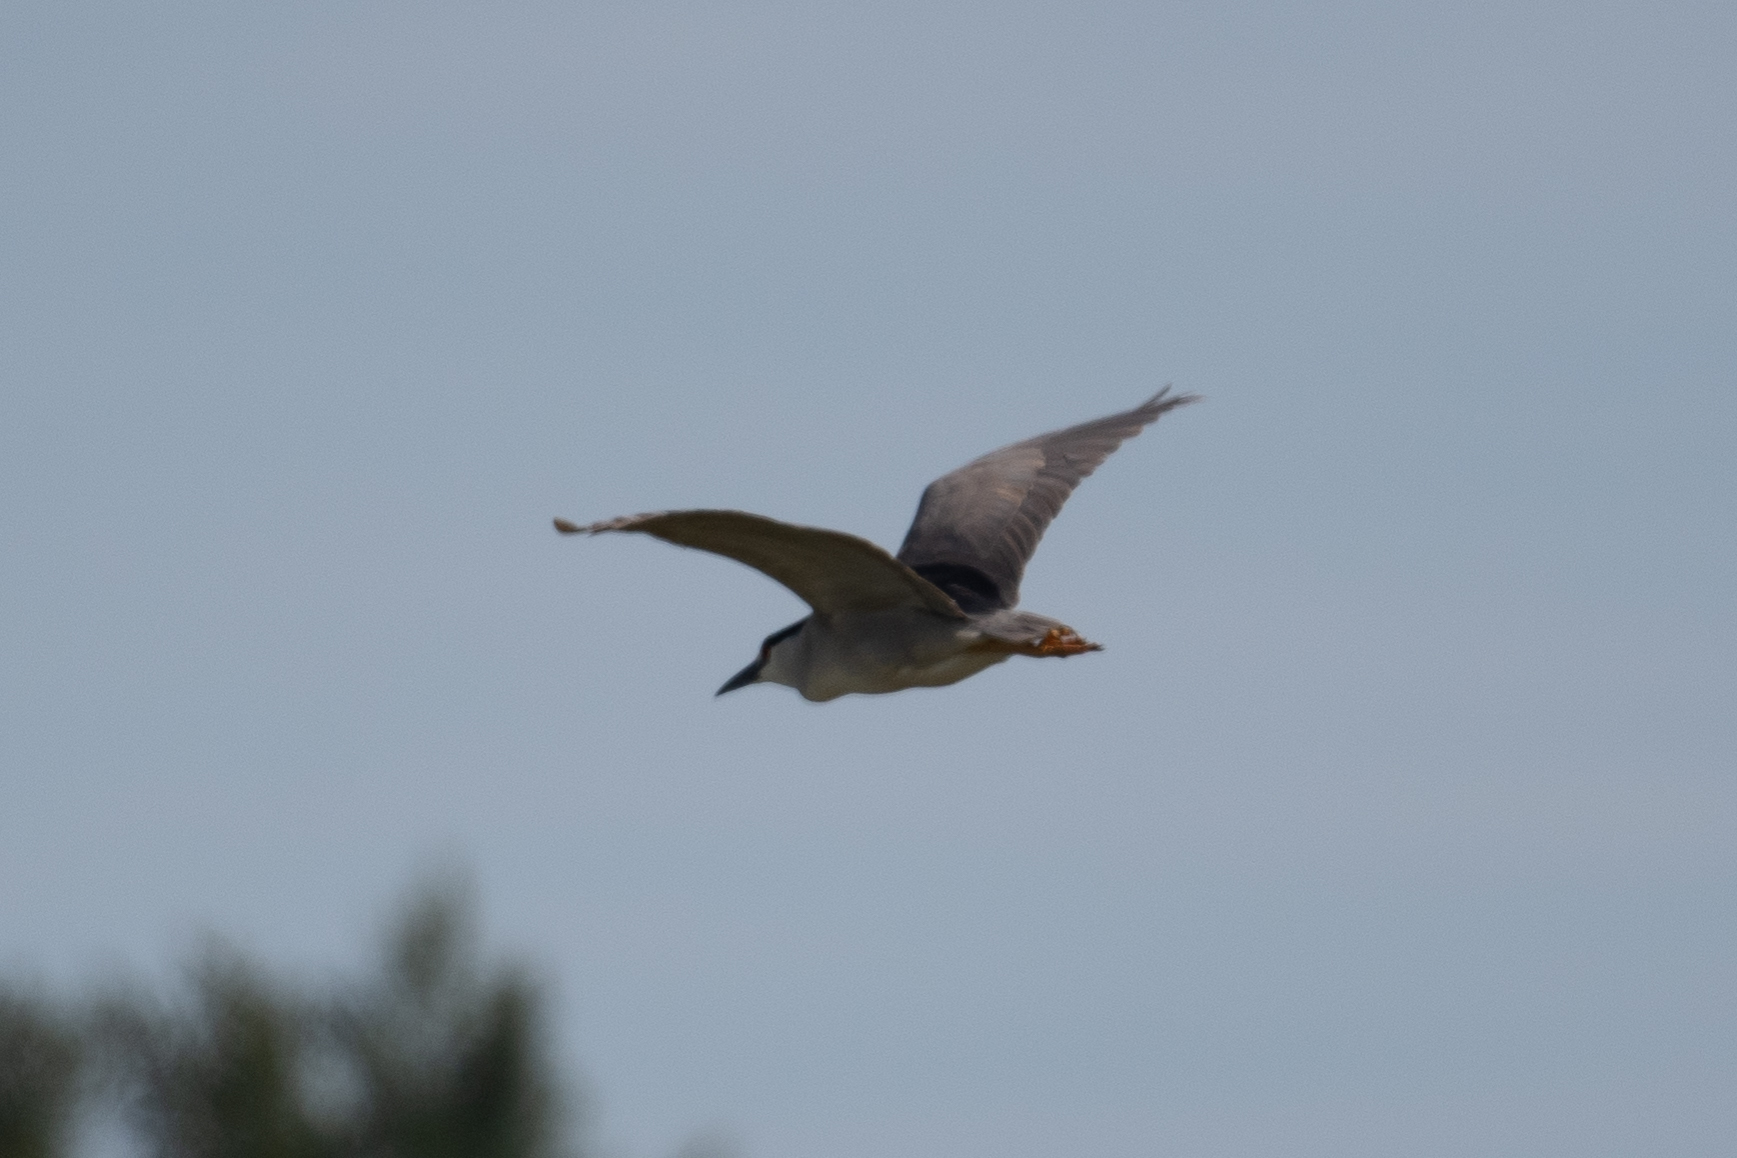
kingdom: Animalia
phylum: Chordata
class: Aves
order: Pelecaniformes
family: Ardeidae
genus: Nycticorax
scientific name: Nycticorax nycticorax
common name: Black-crowned night heron
